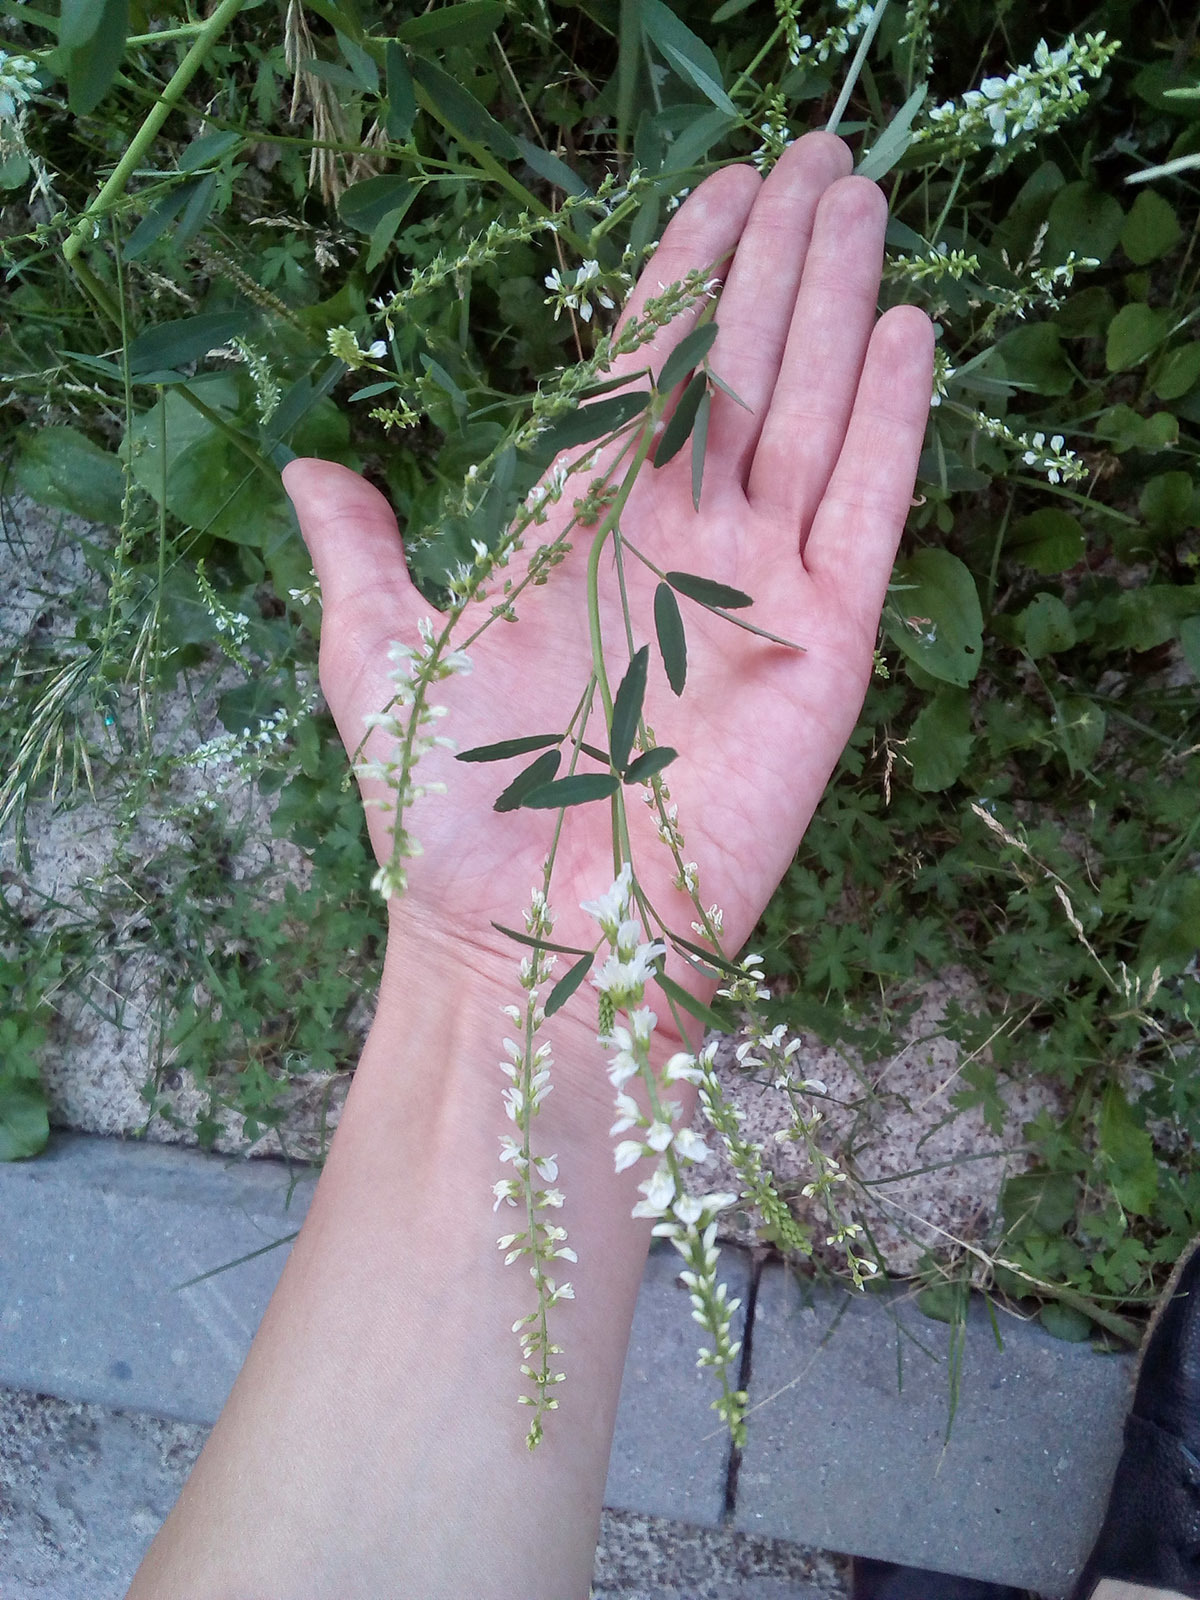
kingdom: Plantae
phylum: Tracheophyta
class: Magnoliopsida
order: Fabales
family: Fabaceae
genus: Melilotus
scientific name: Melilotus albus
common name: White melilot
